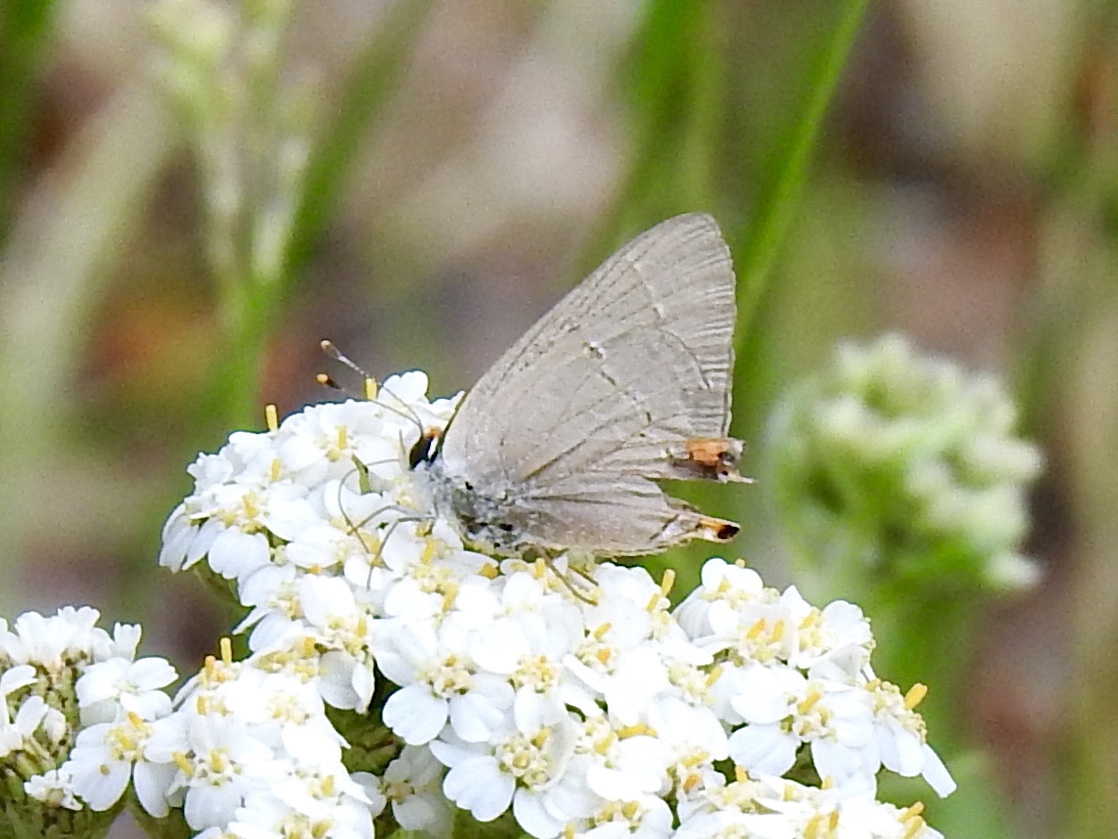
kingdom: Animalia
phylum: Arthropoda
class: Insecta
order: Lepidoptera
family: Lycaenidae
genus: Strymon
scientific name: Strymon melinus
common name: Gray hairstreak
